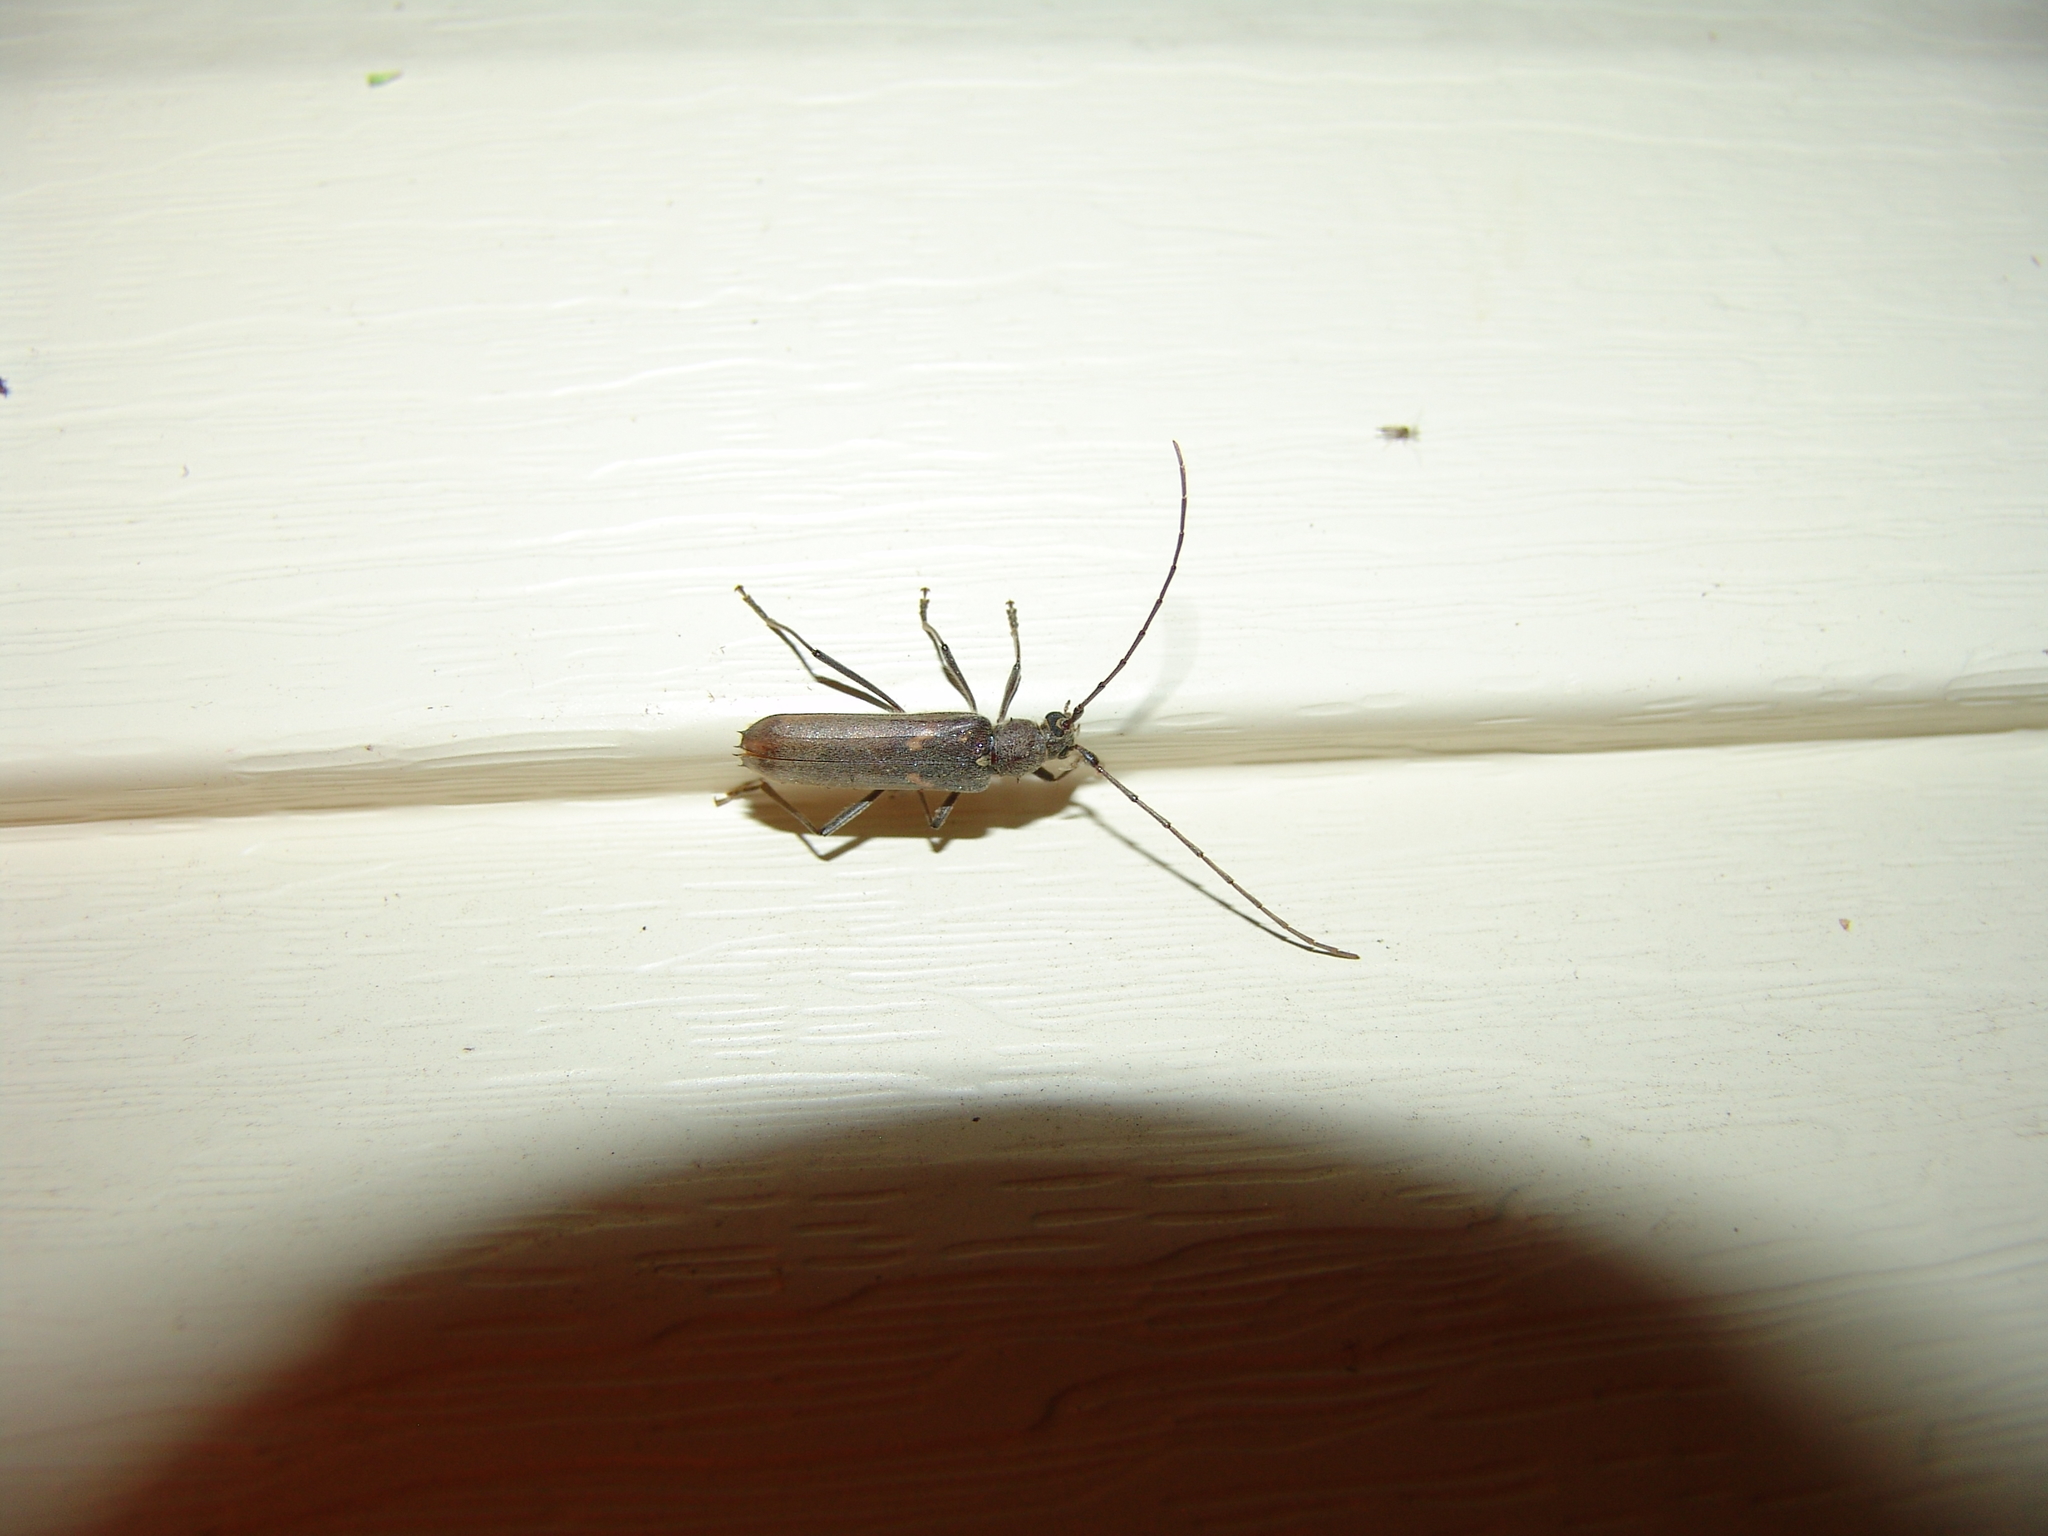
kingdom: Animalia
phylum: Arthropoda
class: Insecta
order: Coleoptera
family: Cerambycidae
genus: Knulliana
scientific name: Knulliana cincta
